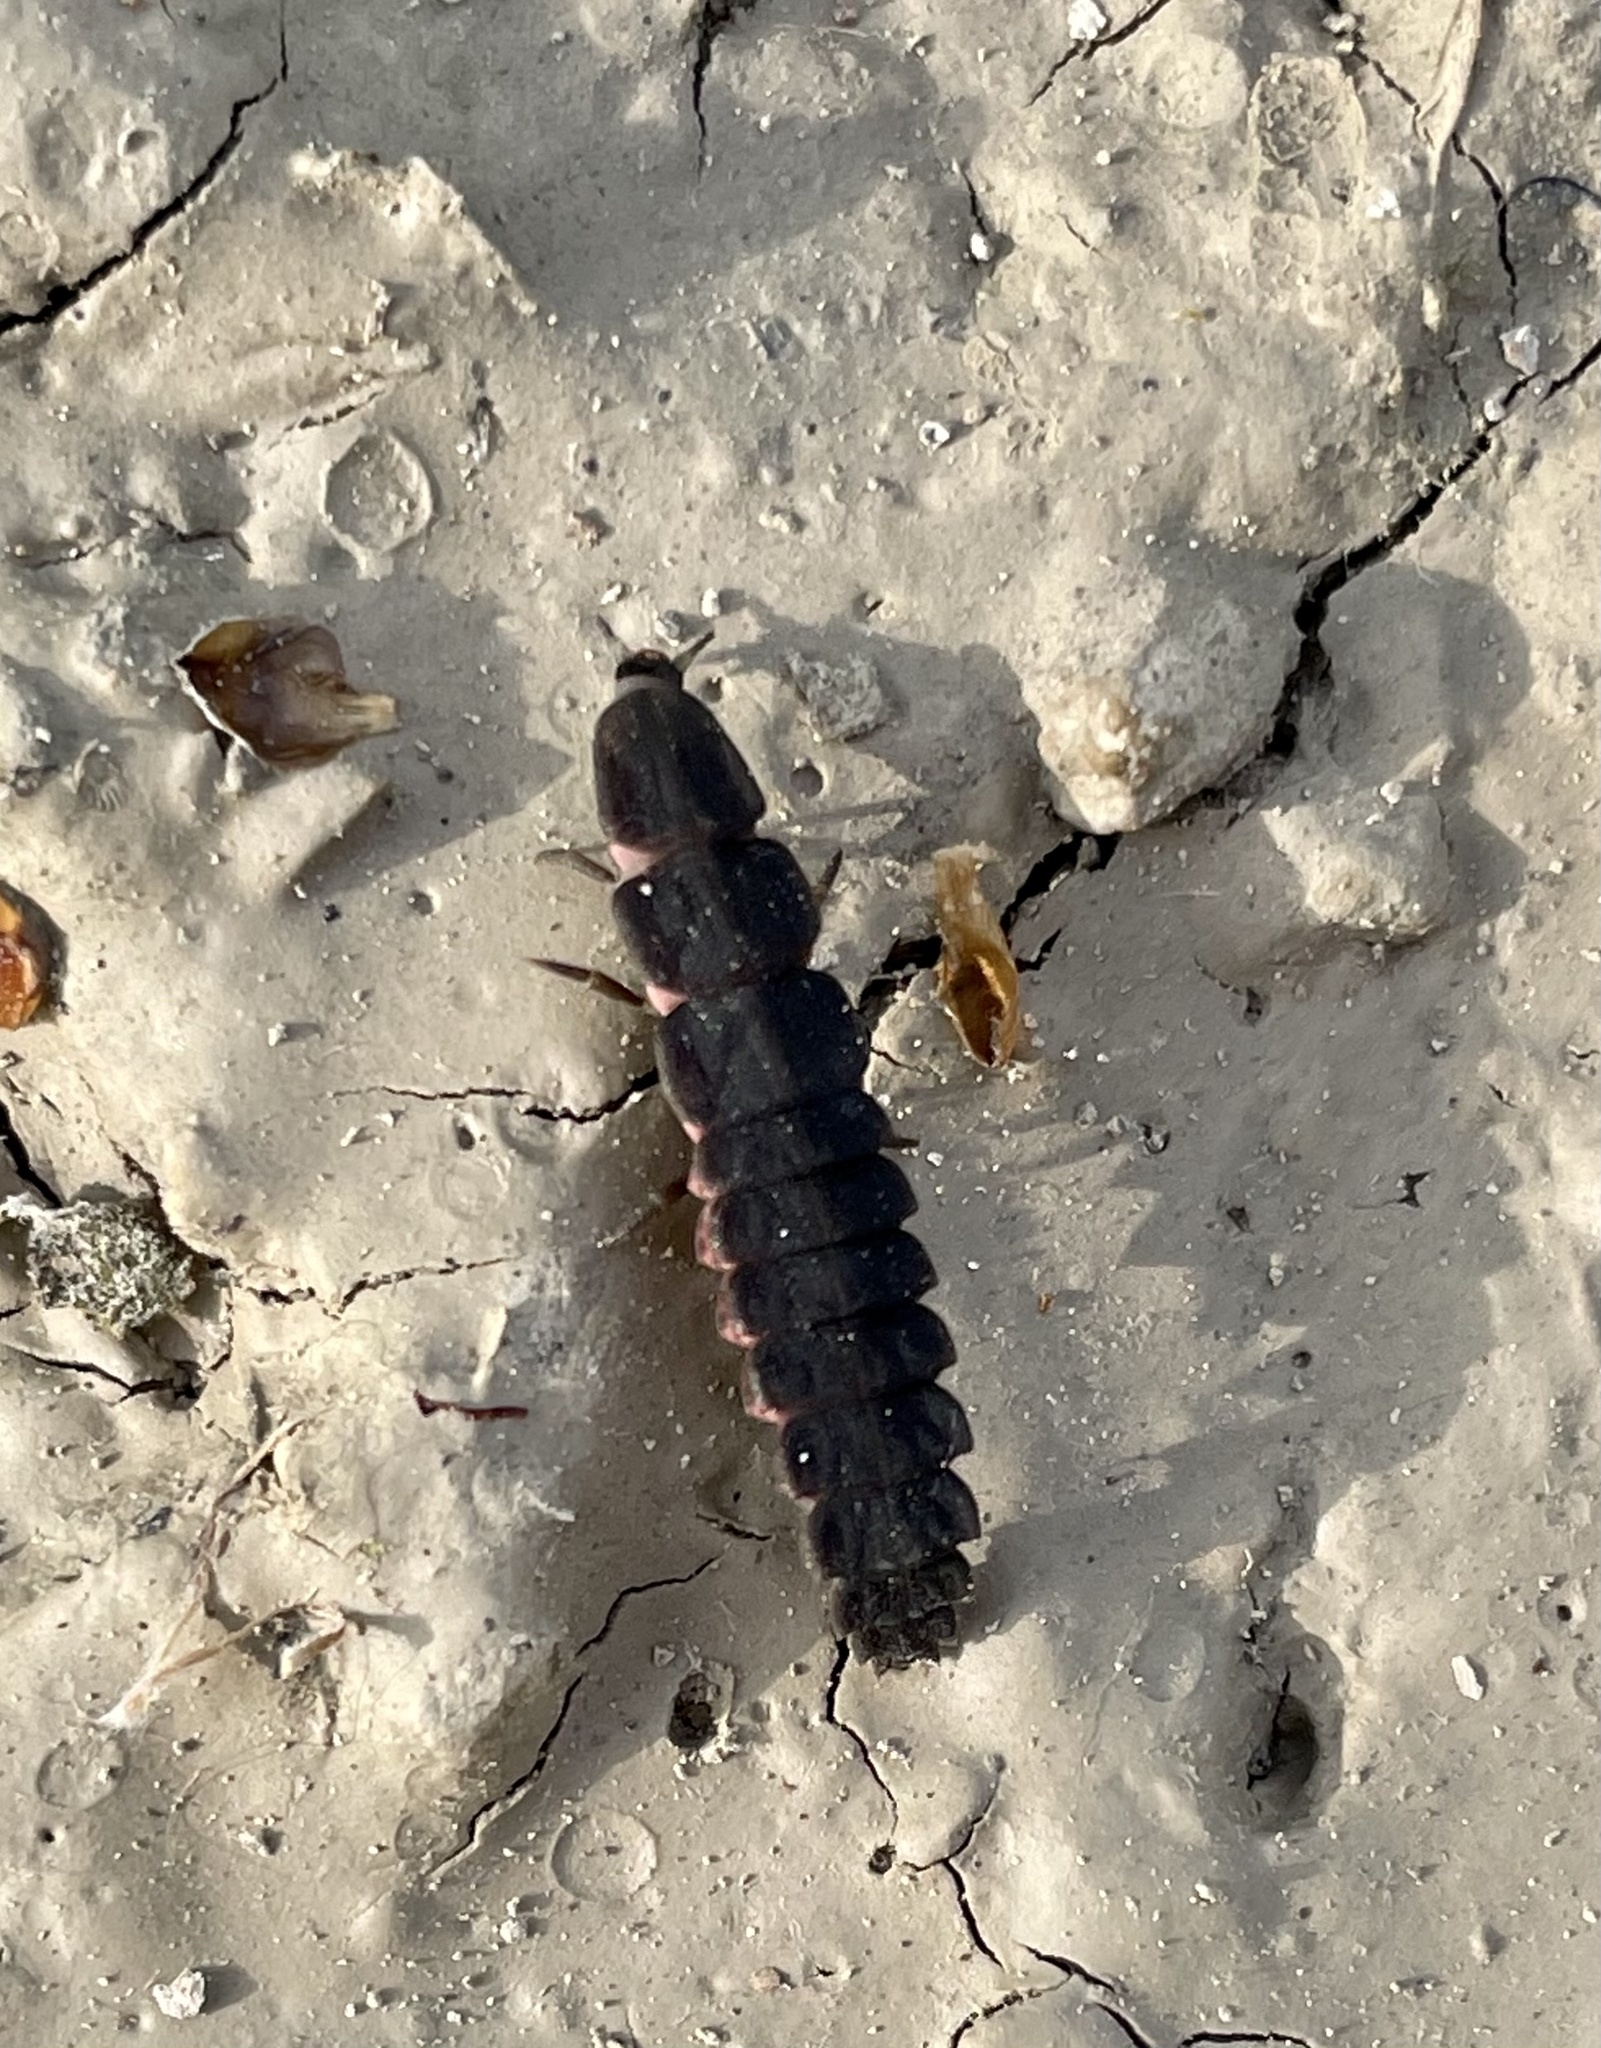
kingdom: Animalia
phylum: Arthropoda
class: Insecta
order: Coleoptera
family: Lampyridae
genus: Nyctophila
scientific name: Nyctophila reichii
